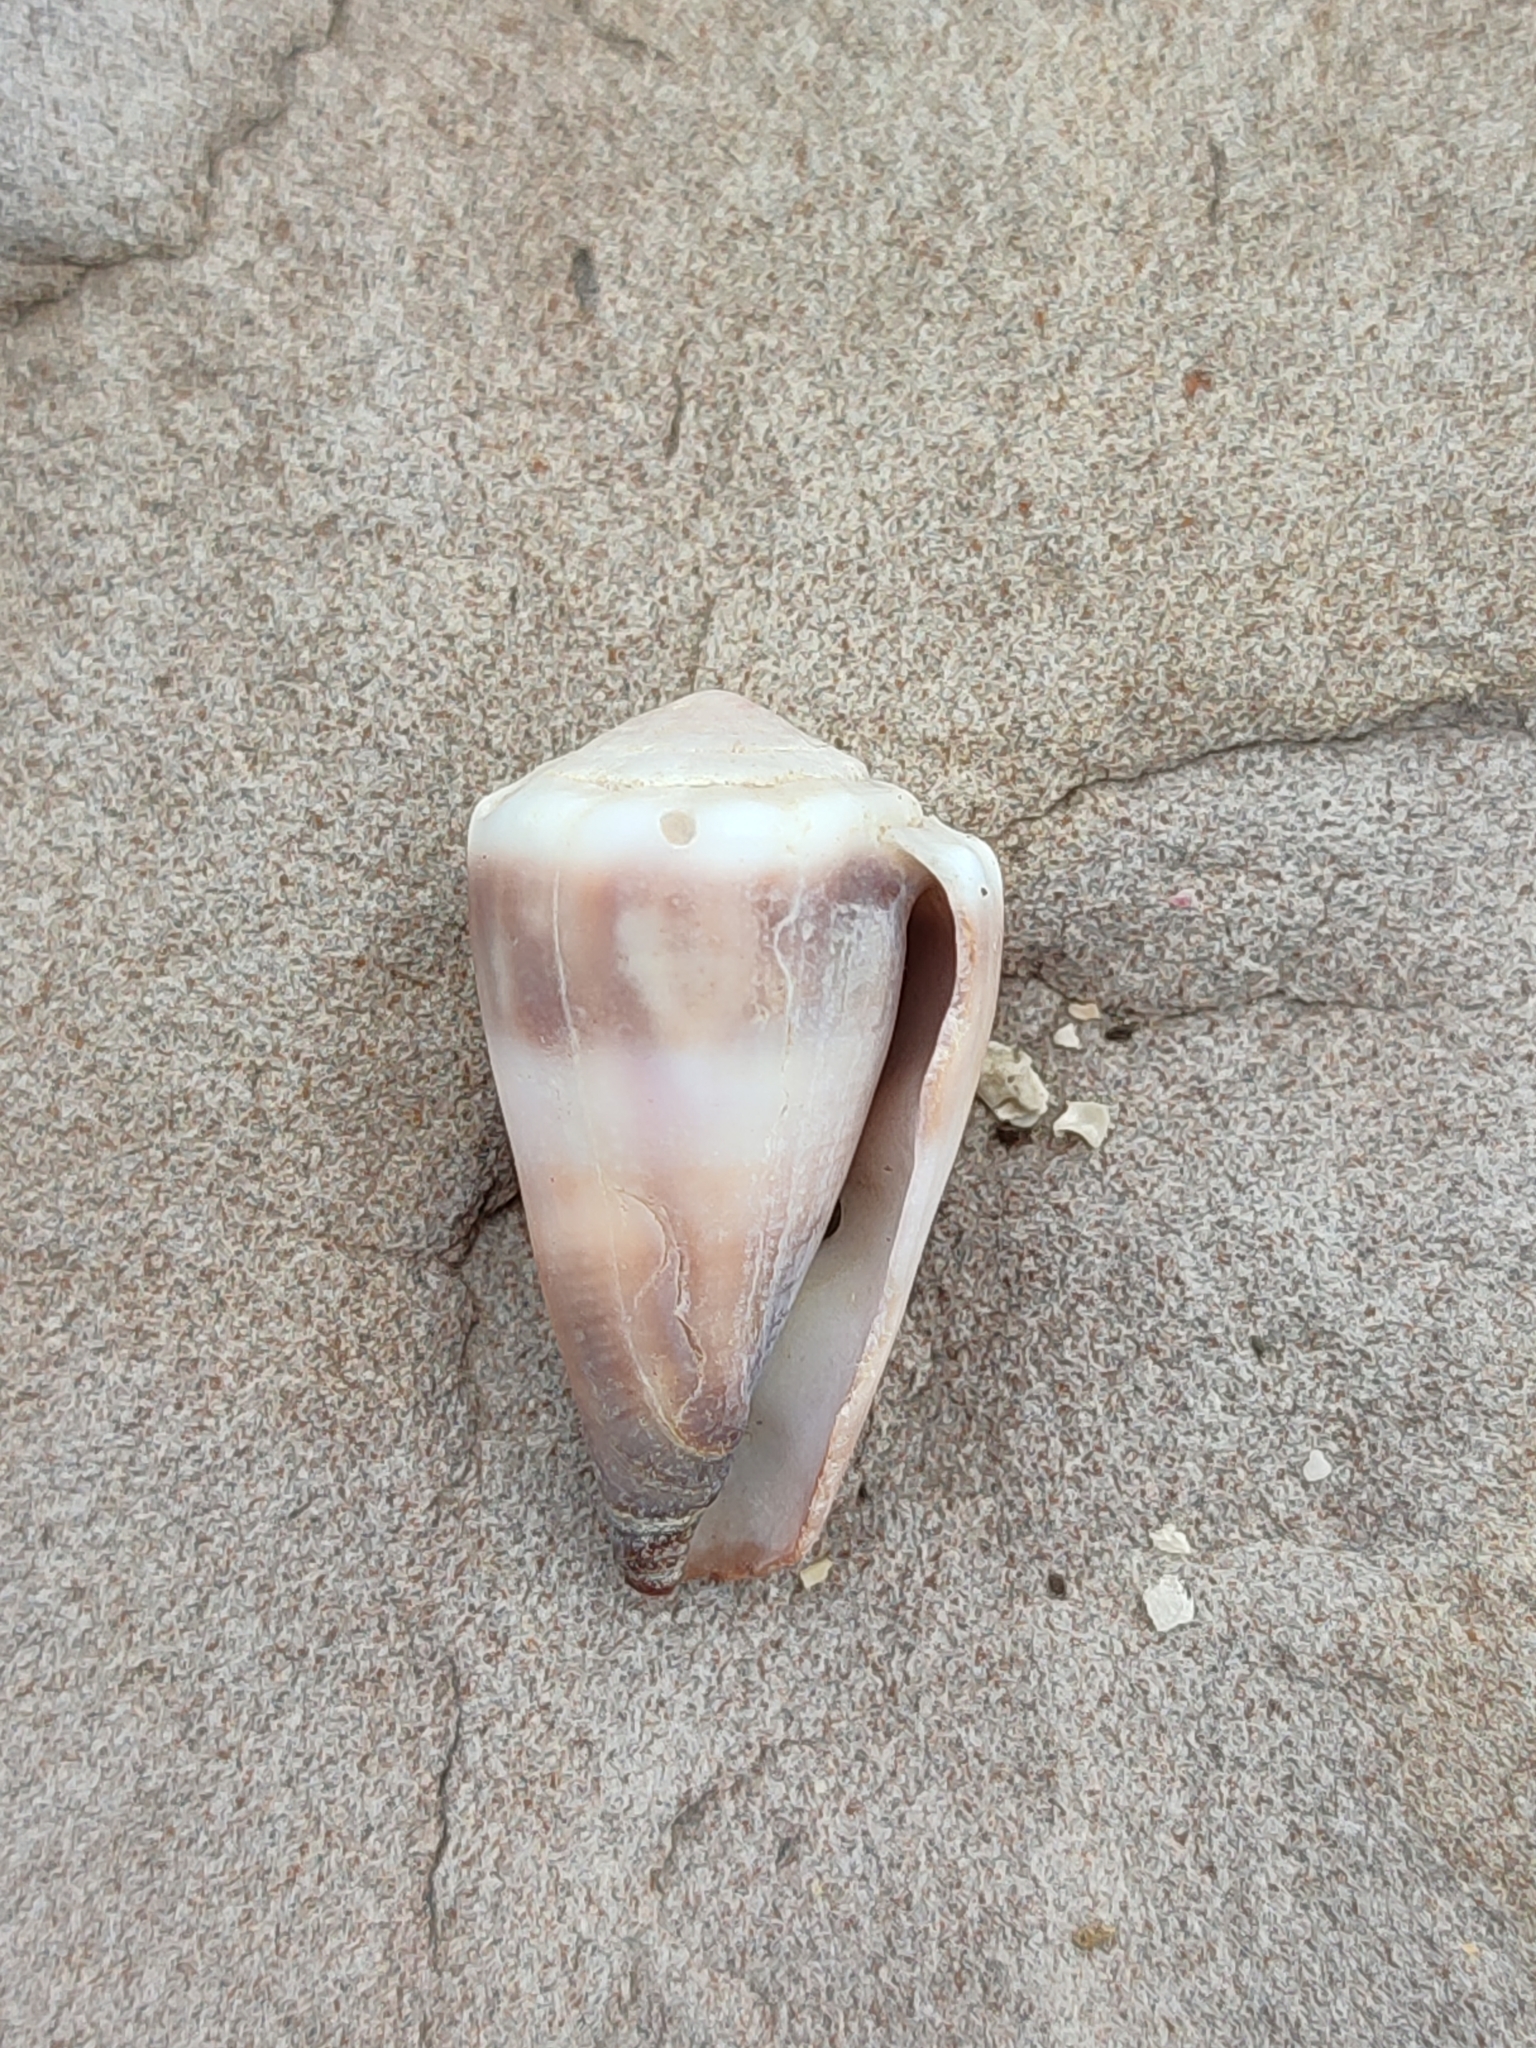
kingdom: Animalia
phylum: Mollusca
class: Gastropoda
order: Neogastropoda
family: Conidae
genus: Conus
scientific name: Conus lividus
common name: Livid cone
